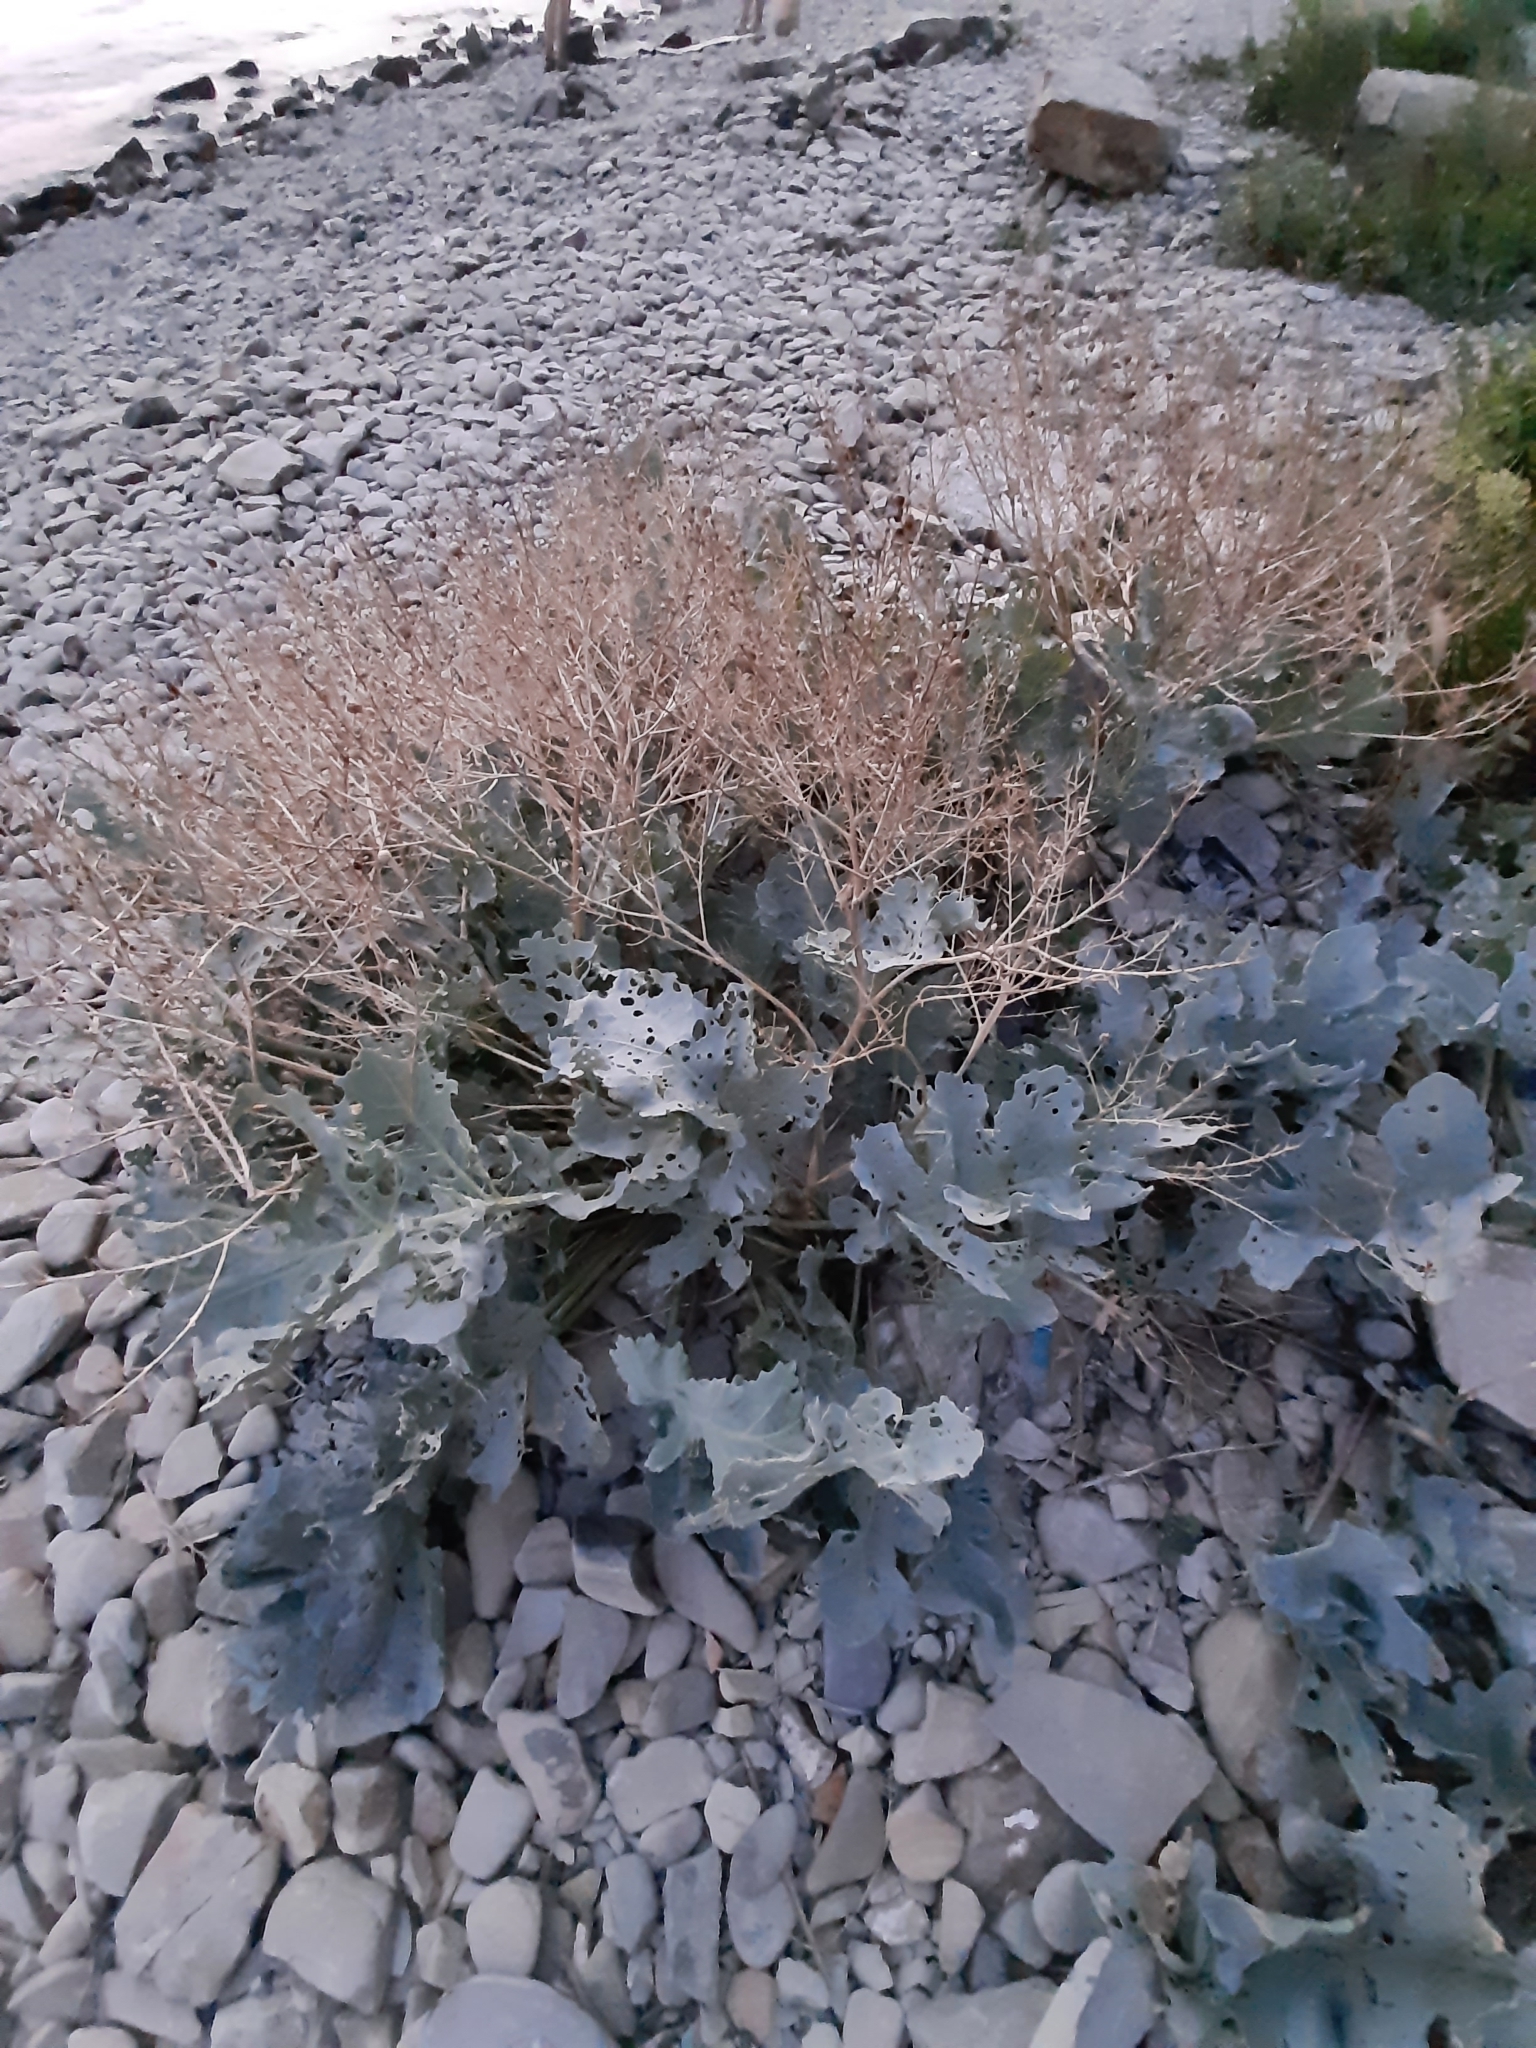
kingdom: Plantae
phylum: Tracheophyta
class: Magnoliopsida
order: Brassicales
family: Brassicaceae
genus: Crambe
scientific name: Crambe maritima
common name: Sea-kale
